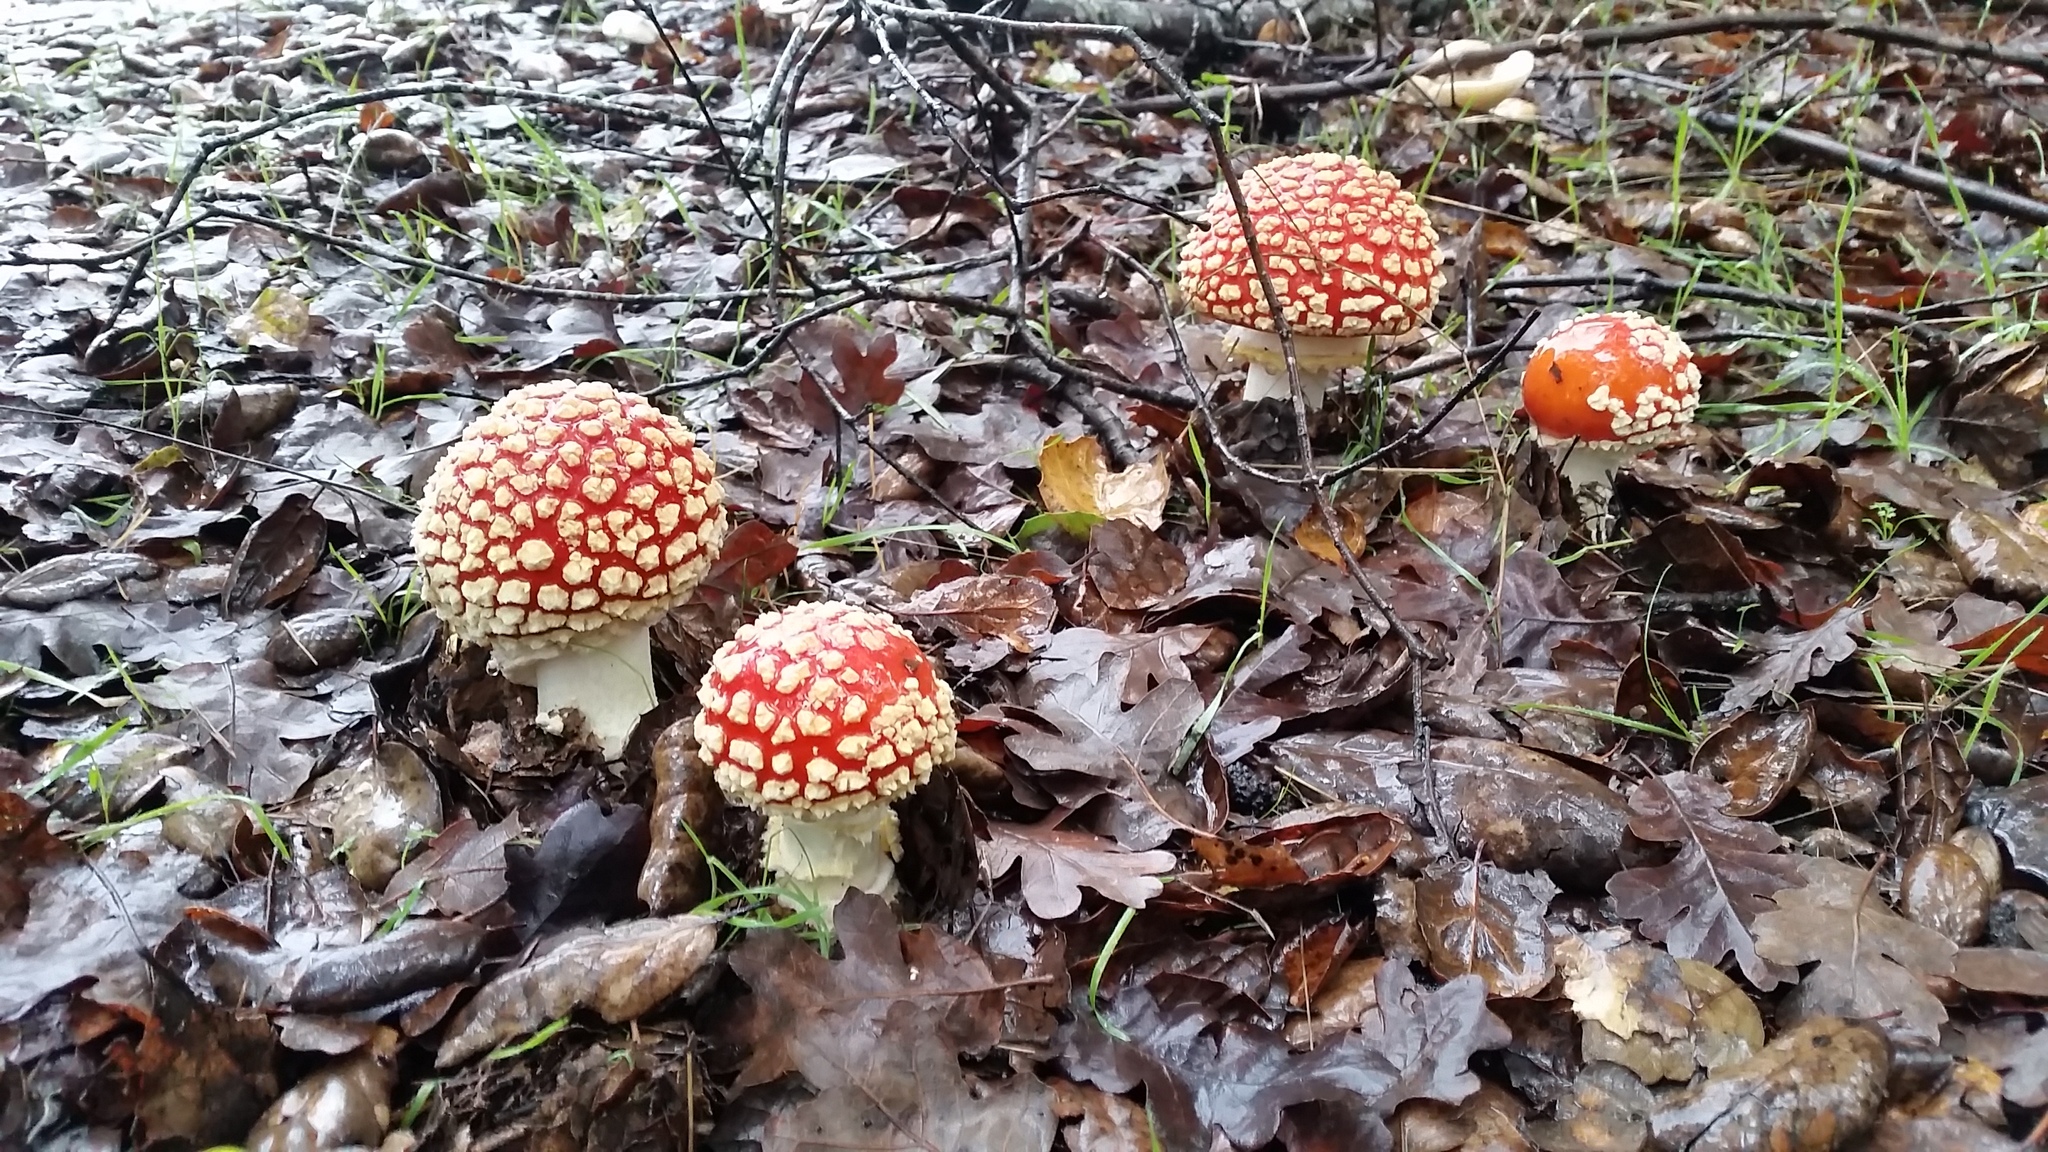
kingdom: Fungi
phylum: Basidiomycota
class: Agaricomycetes
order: Agaricales
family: Amanitaceae
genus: Amanita
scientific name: Amanita muscaria
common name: Fly agaric
